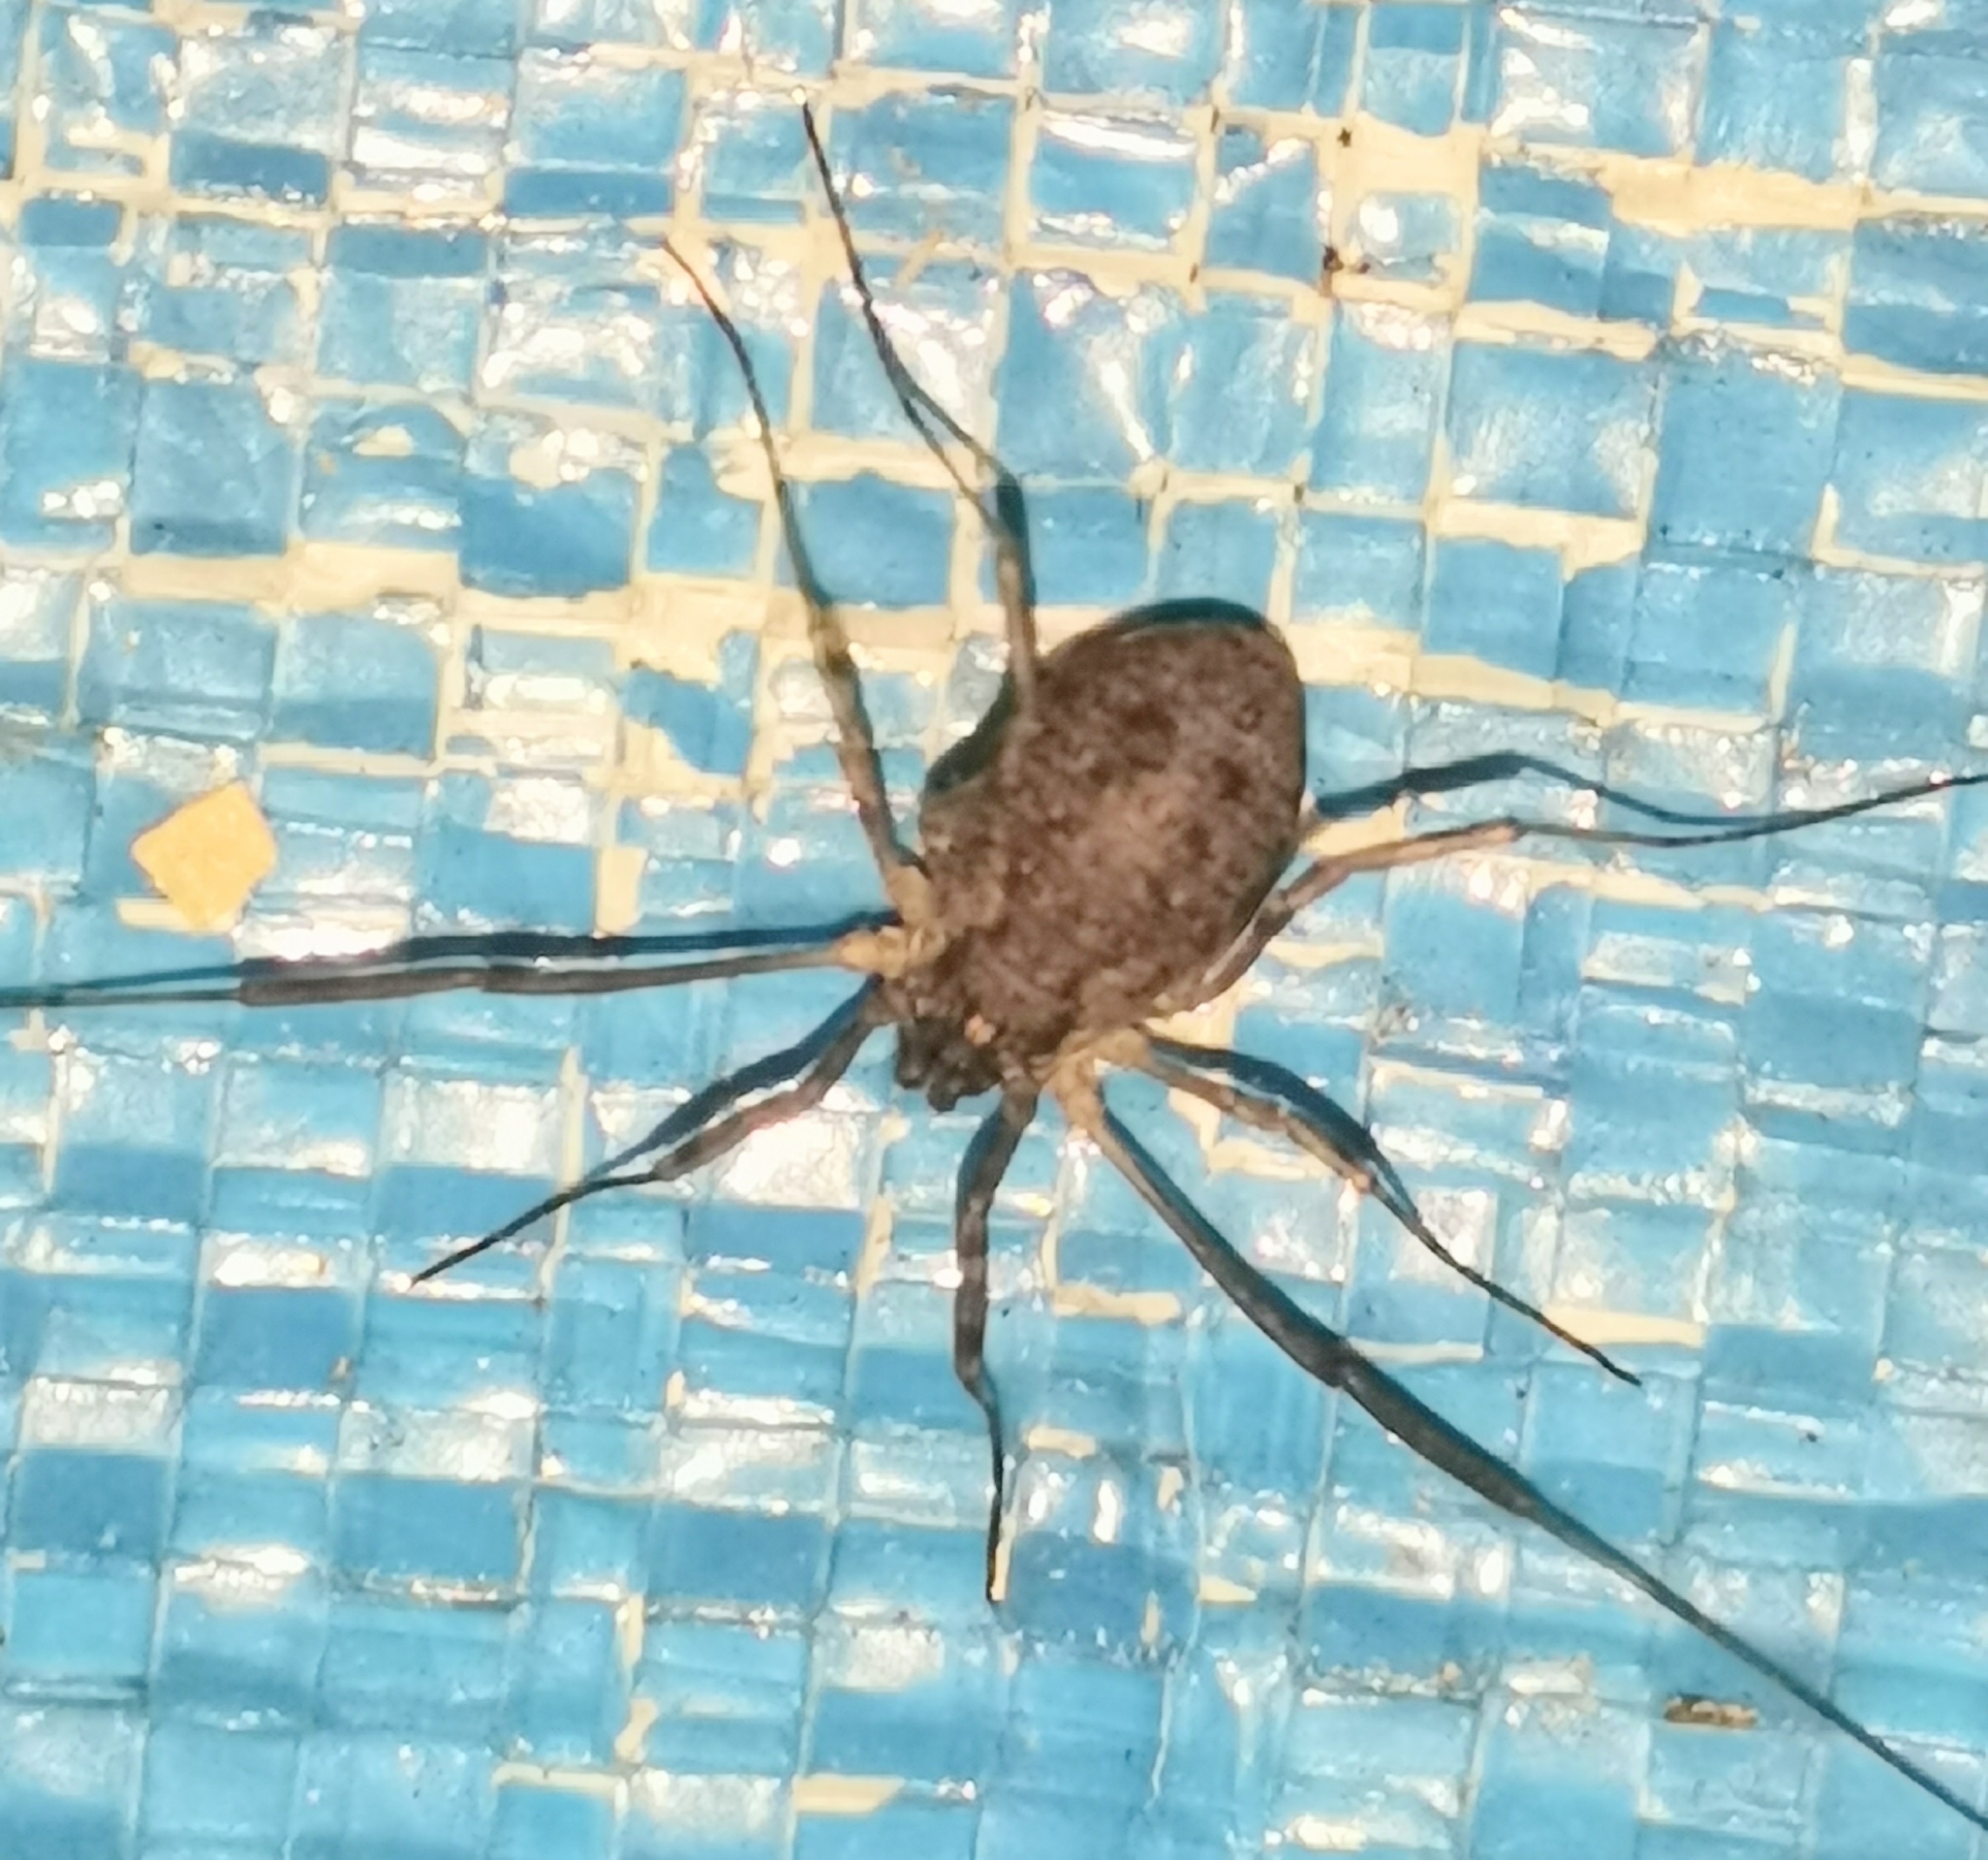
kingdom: Animalia
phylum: Arthropoda
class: Arachnida
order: Opiliones
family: Phalangiidae
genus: Oligolophus
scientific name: Oligolophus tridens
